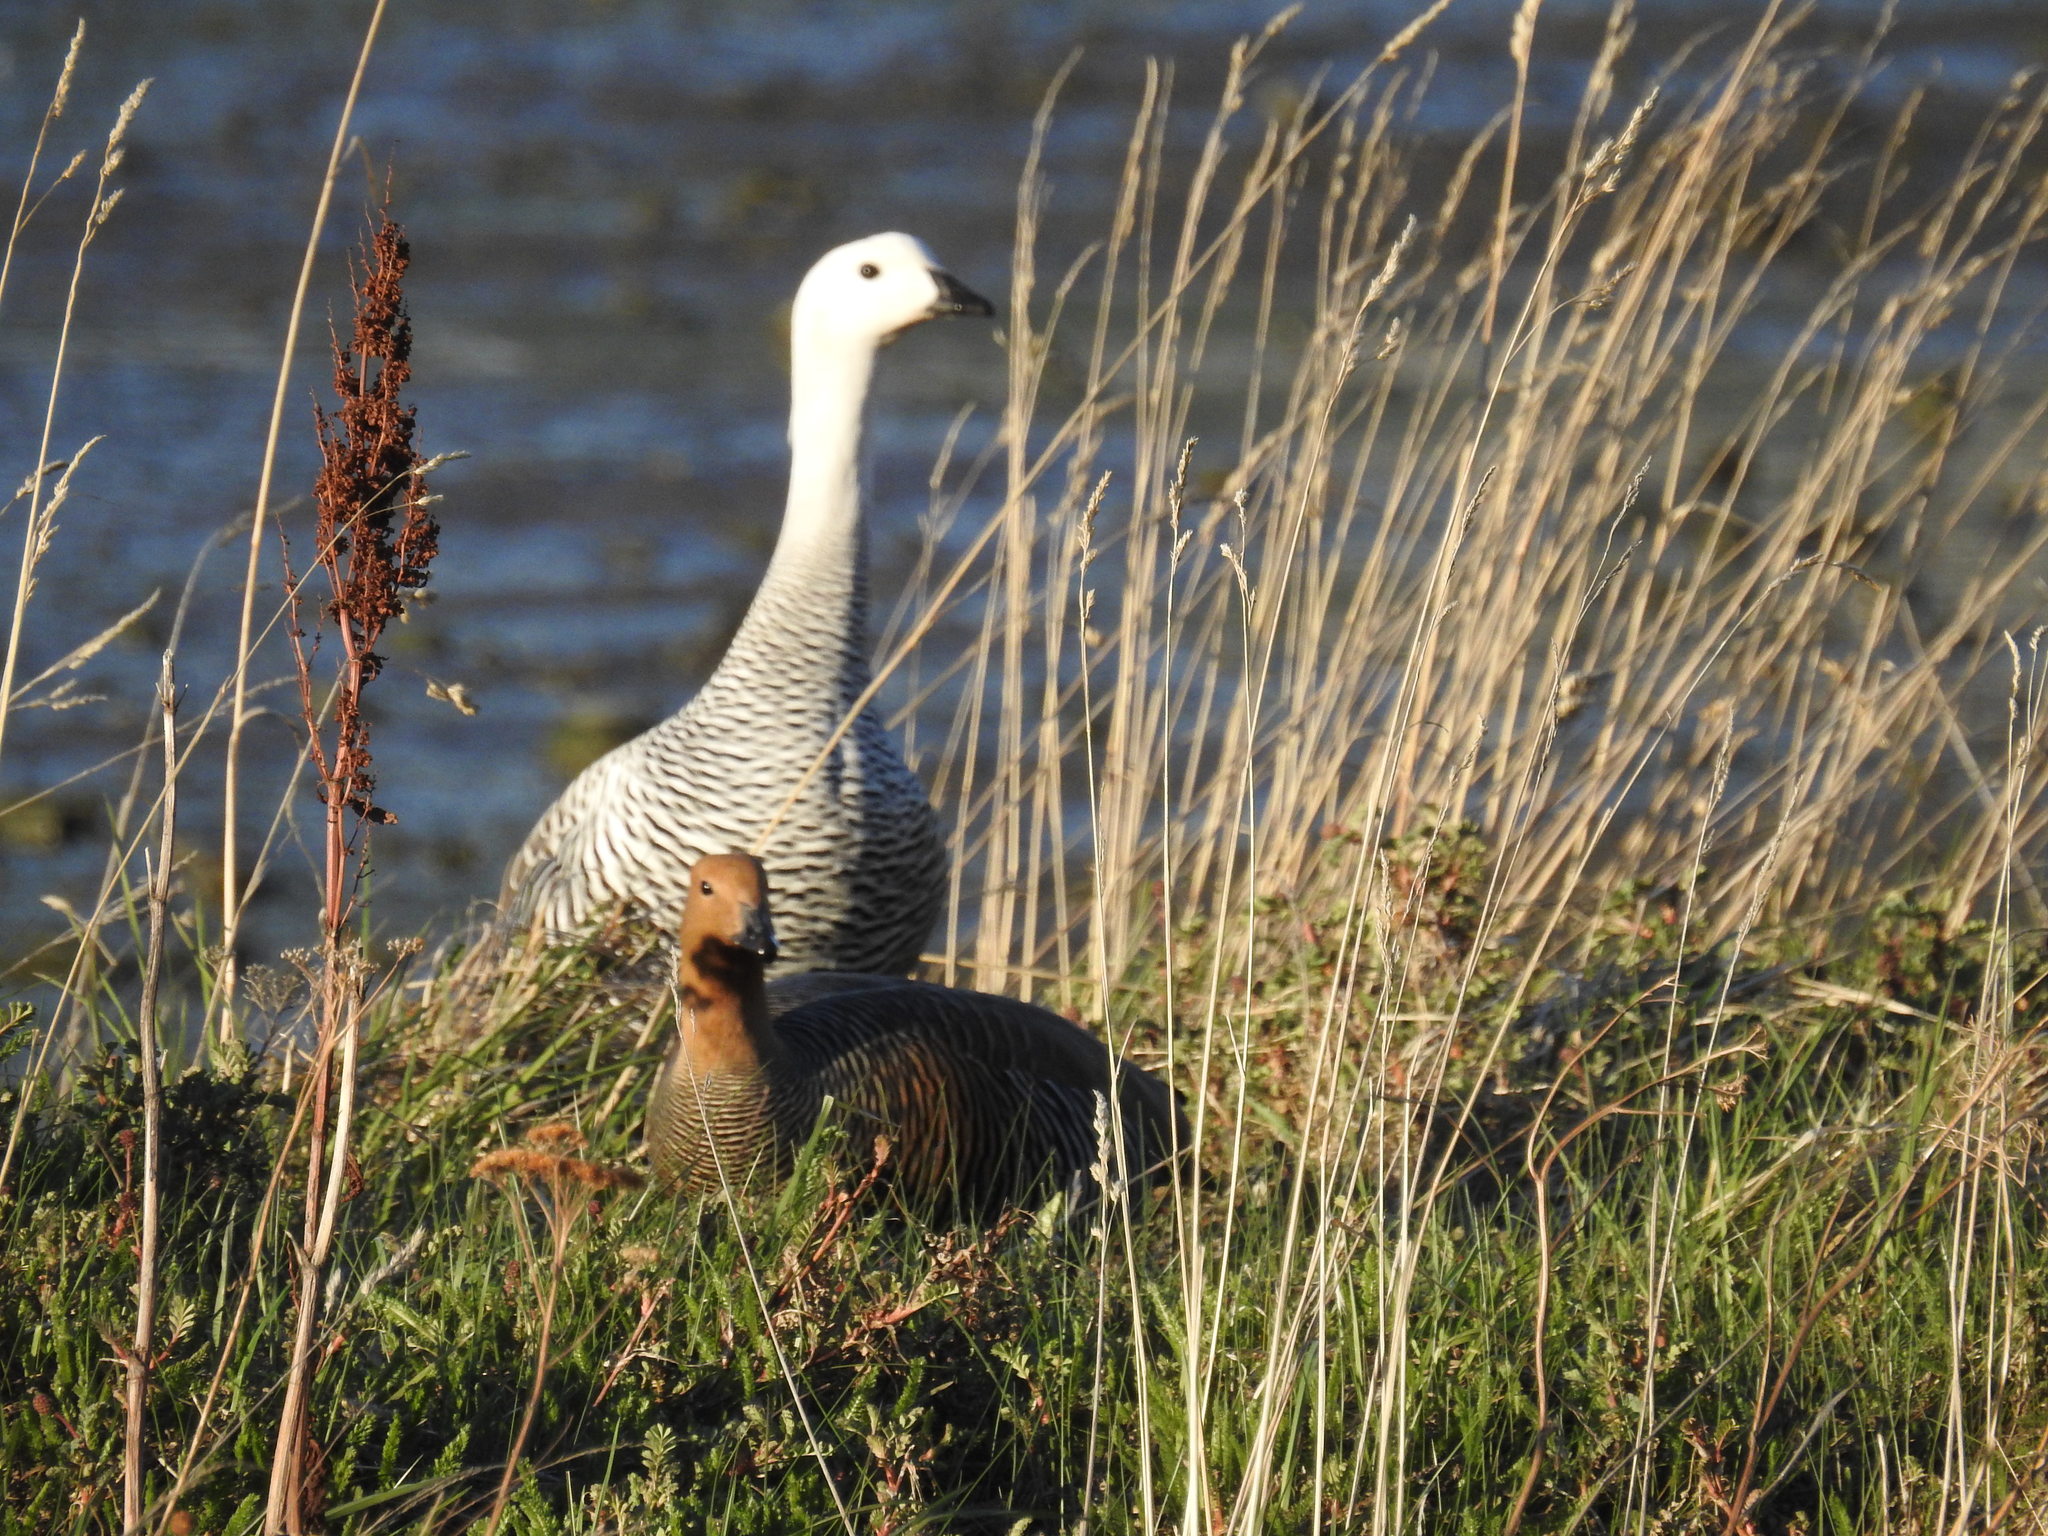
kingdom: Animalia
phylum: Chordata
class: Aves
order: Anseriformes
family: Anatidae
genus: Chloephaga
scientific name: Chloephaga picta
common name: Upland goose
